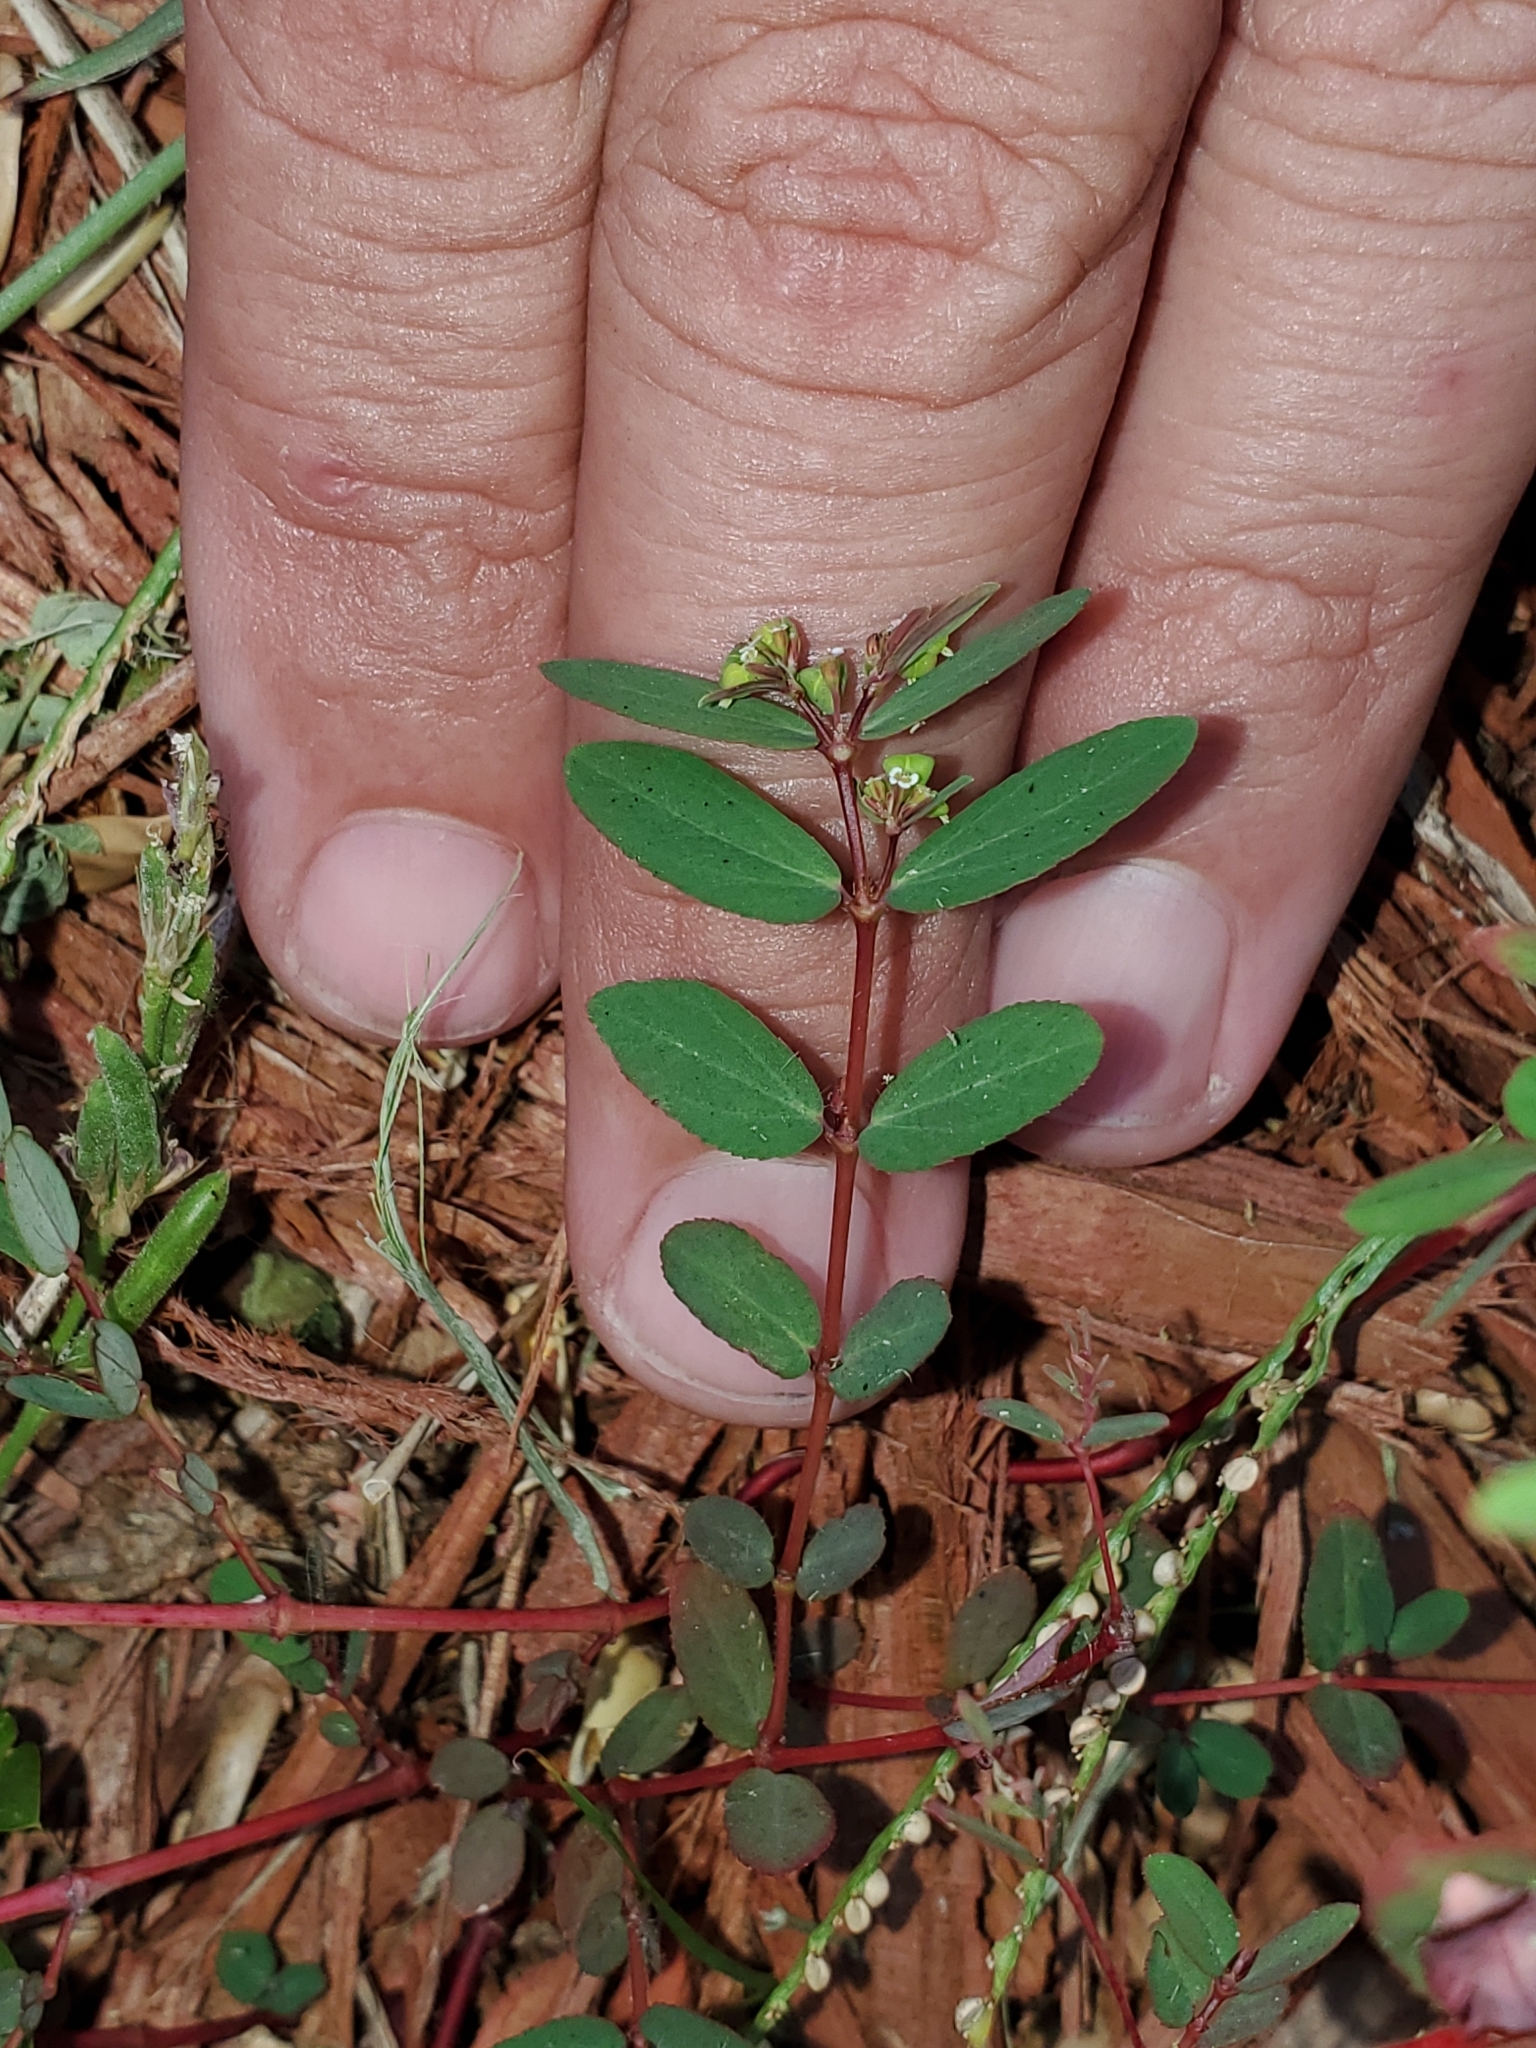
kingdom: Plantae
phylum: Tracheophyta
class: Magnoliopsida
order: Malpighiales
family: Euphorbiaceae
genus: Euphorbia
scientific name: Euphorbia hyssopifolia
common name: Hyssopleaf sandmat
